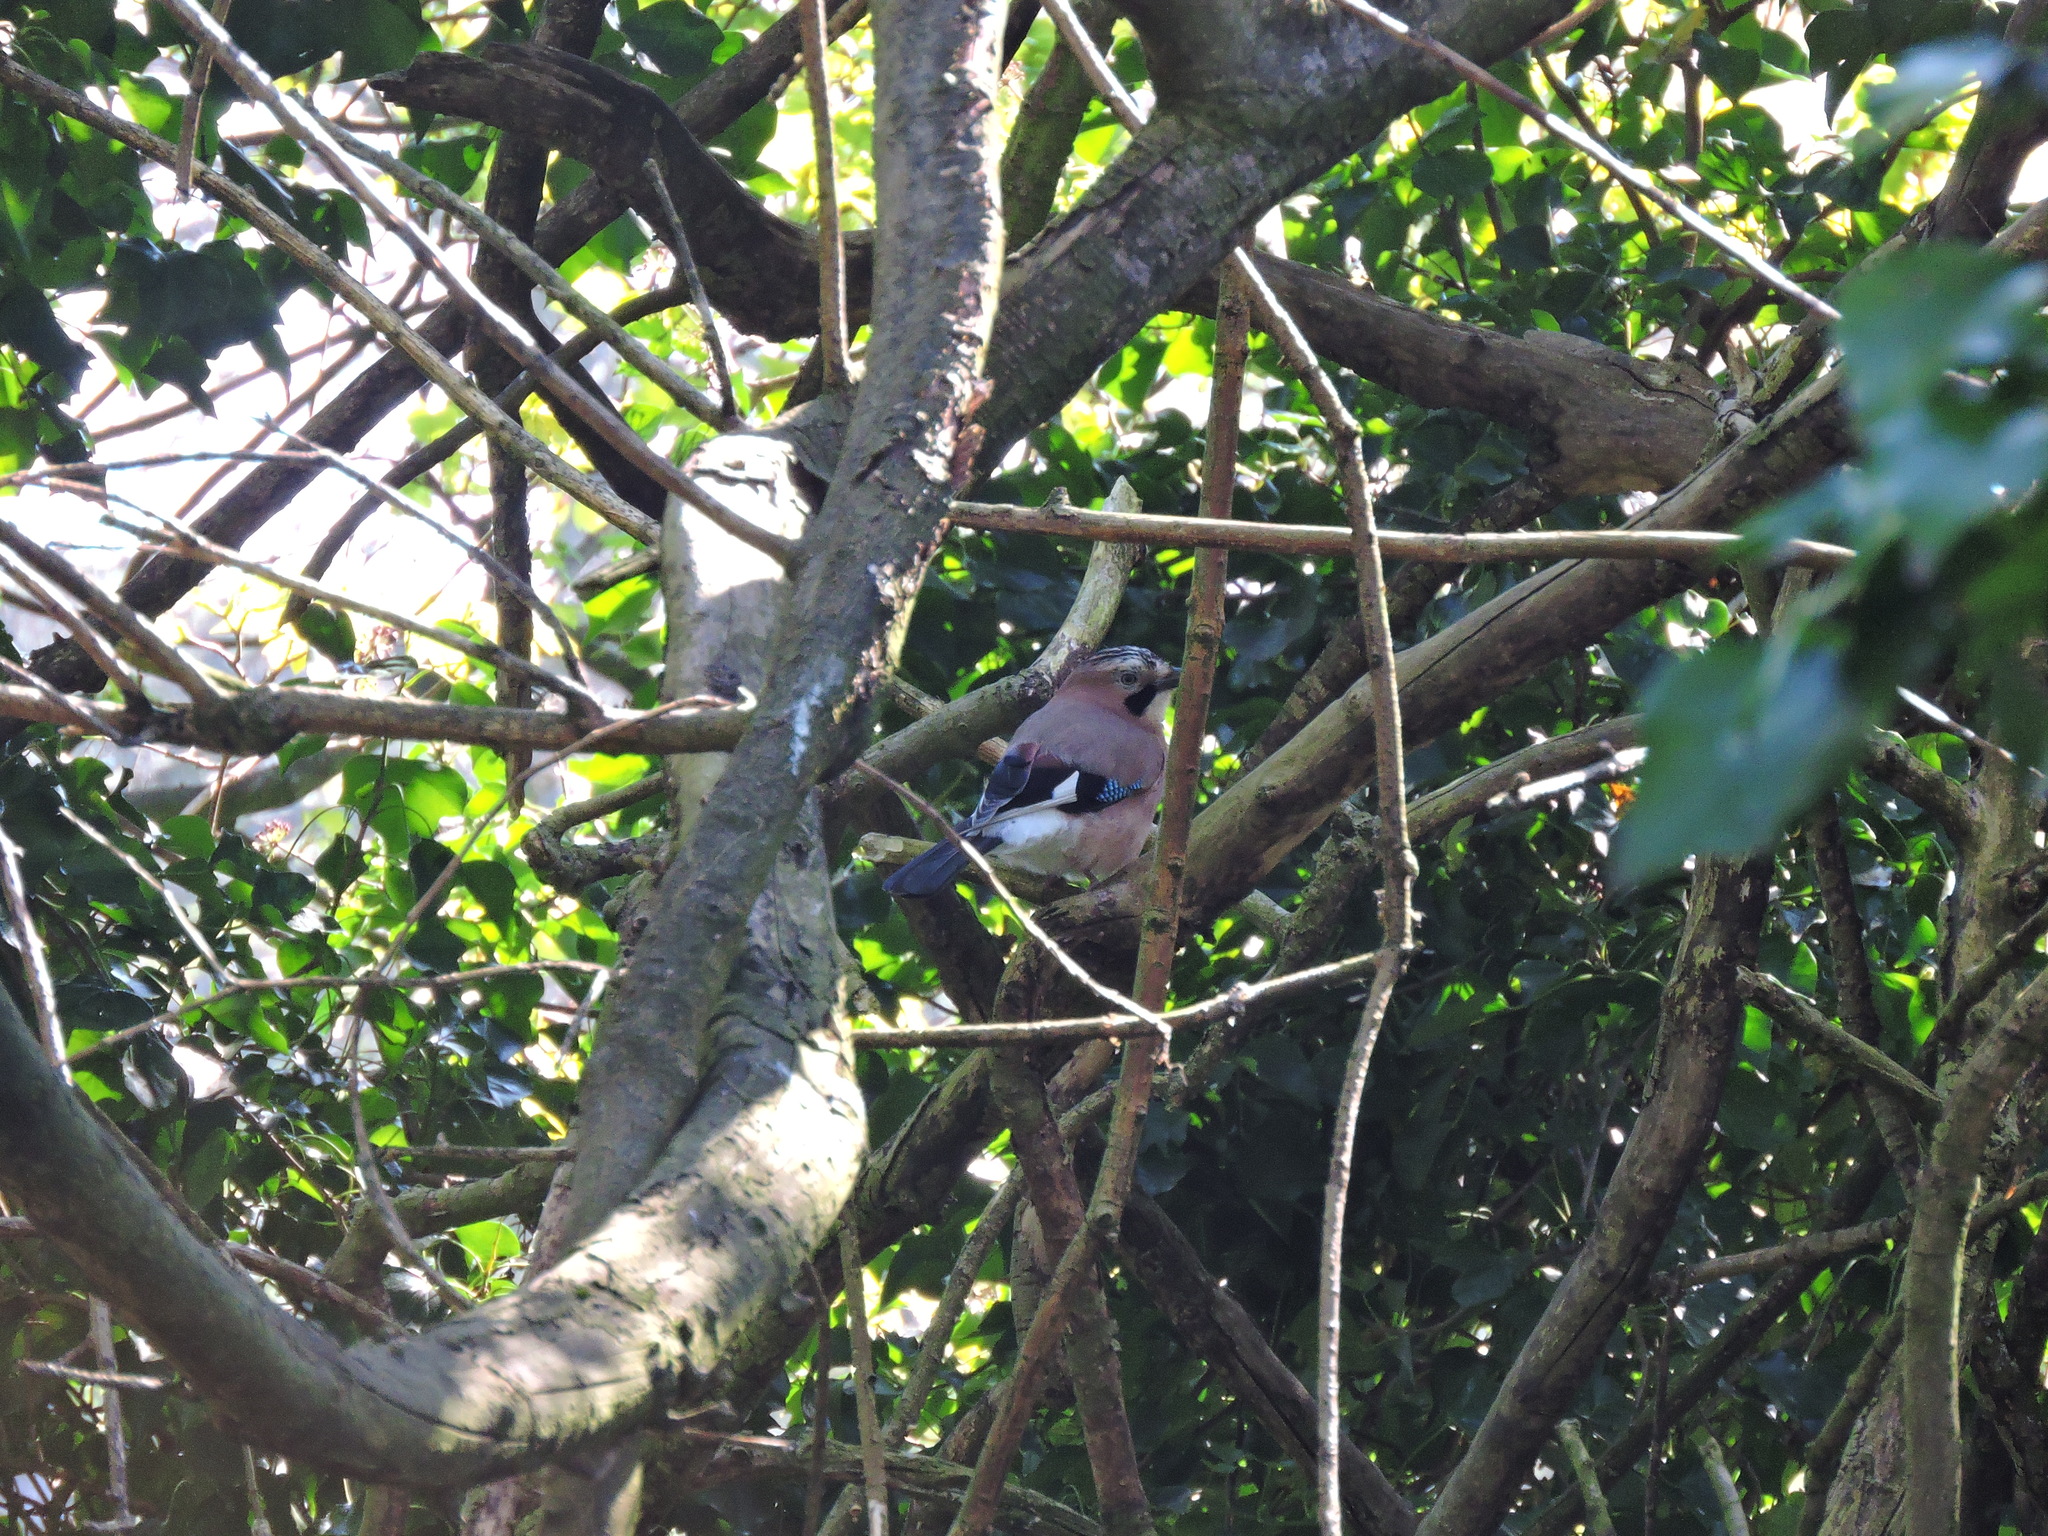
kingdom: Animalia
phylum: Chordata
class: Aves
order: Passeriformes
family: Corvidae
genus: Garrulus
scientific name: Garrulus glandarius
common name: Eurasian jay
